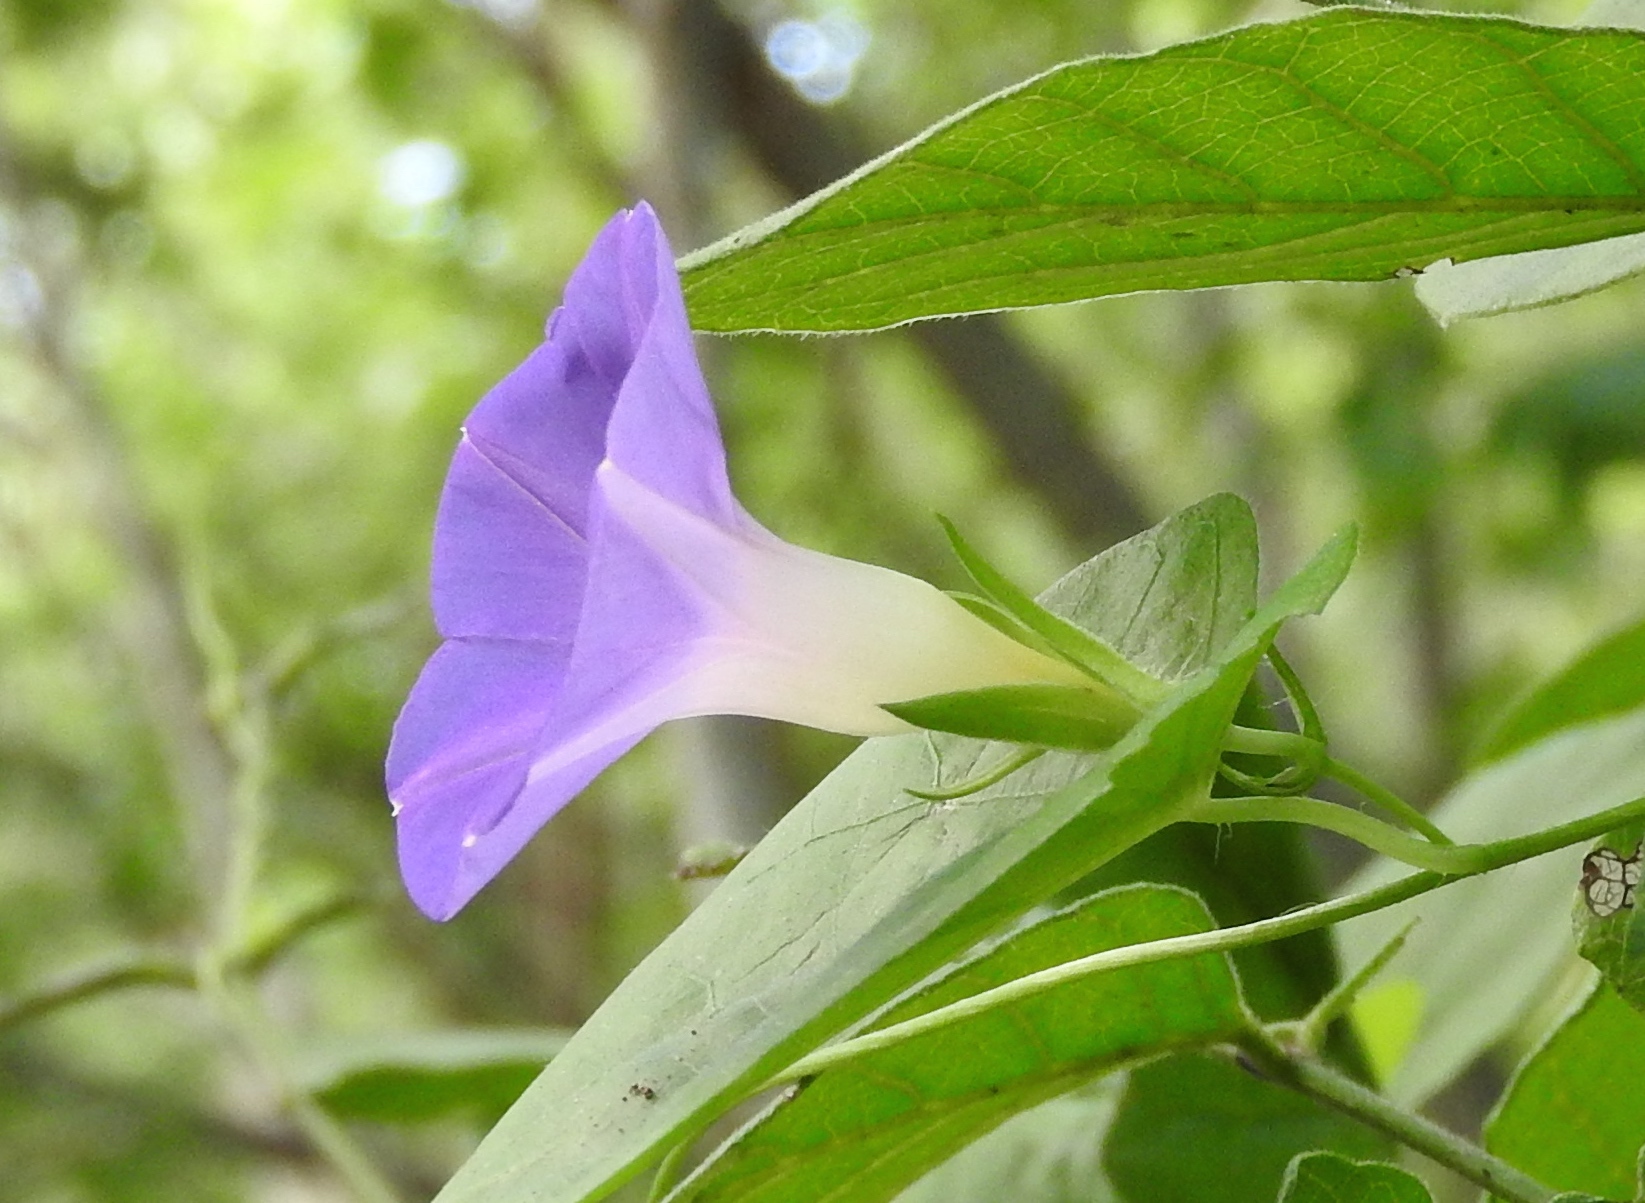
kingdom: Plantae
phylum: Tracheophyta
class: Magnoliopsida
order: Solanales
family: Convolvulaceae
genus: Ipomoea
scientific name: Ipomoea meyeri
